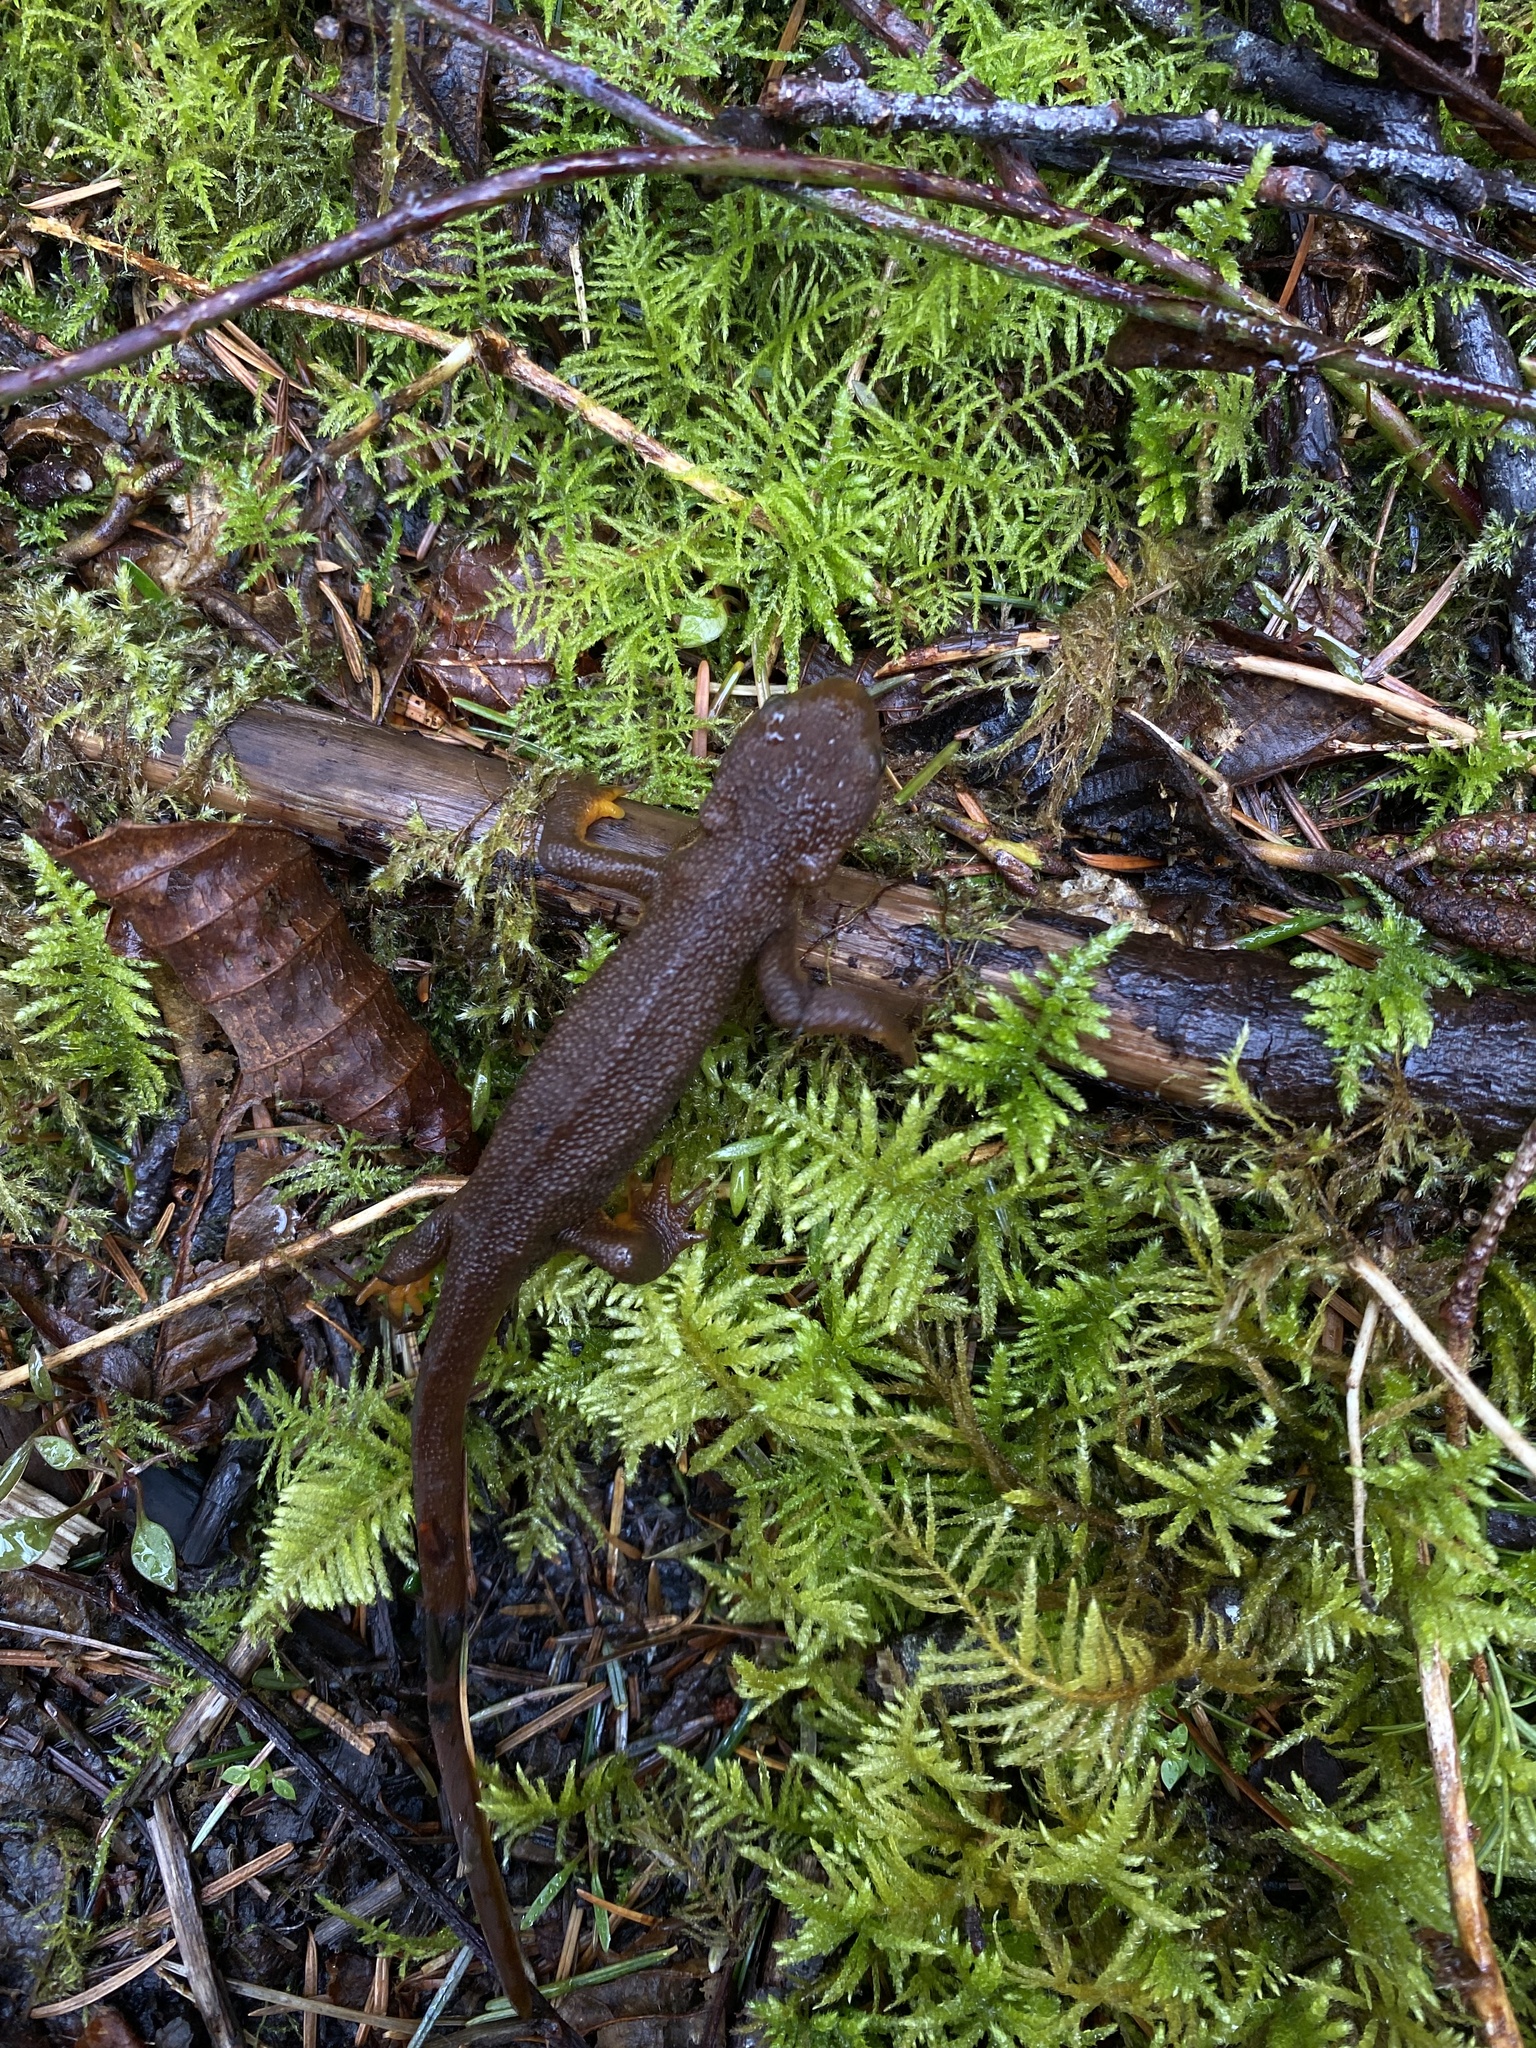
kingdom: Animalia
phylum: Chordata
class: Amphibia
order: Caudata
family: Salamandridae
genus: Taricha
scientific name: Taricha granulosa
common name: Roughskin newt
